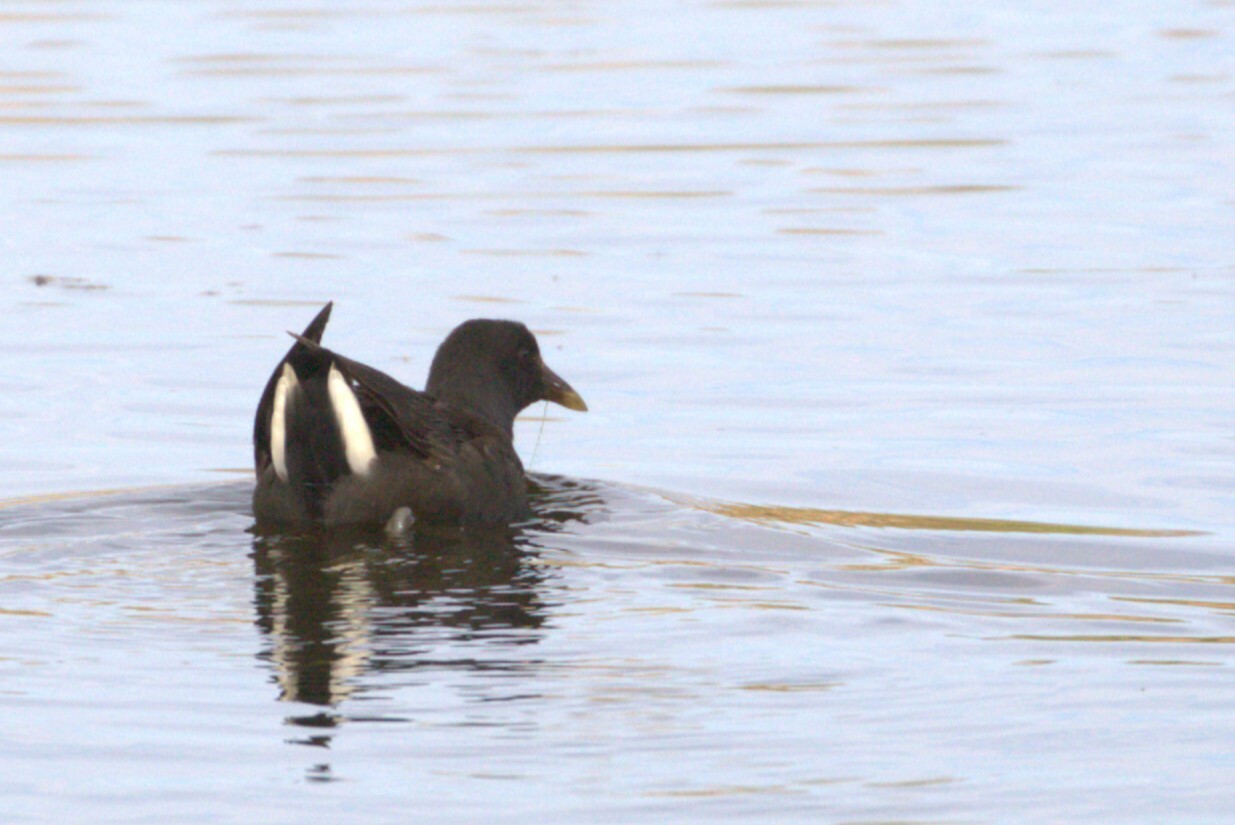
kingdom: Animalia
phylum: Chordata
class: Aves
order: Gruiformes
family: Rallidae
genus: Gallinula
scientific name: Gallinula tenebrosa
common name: Dusky moorhen
